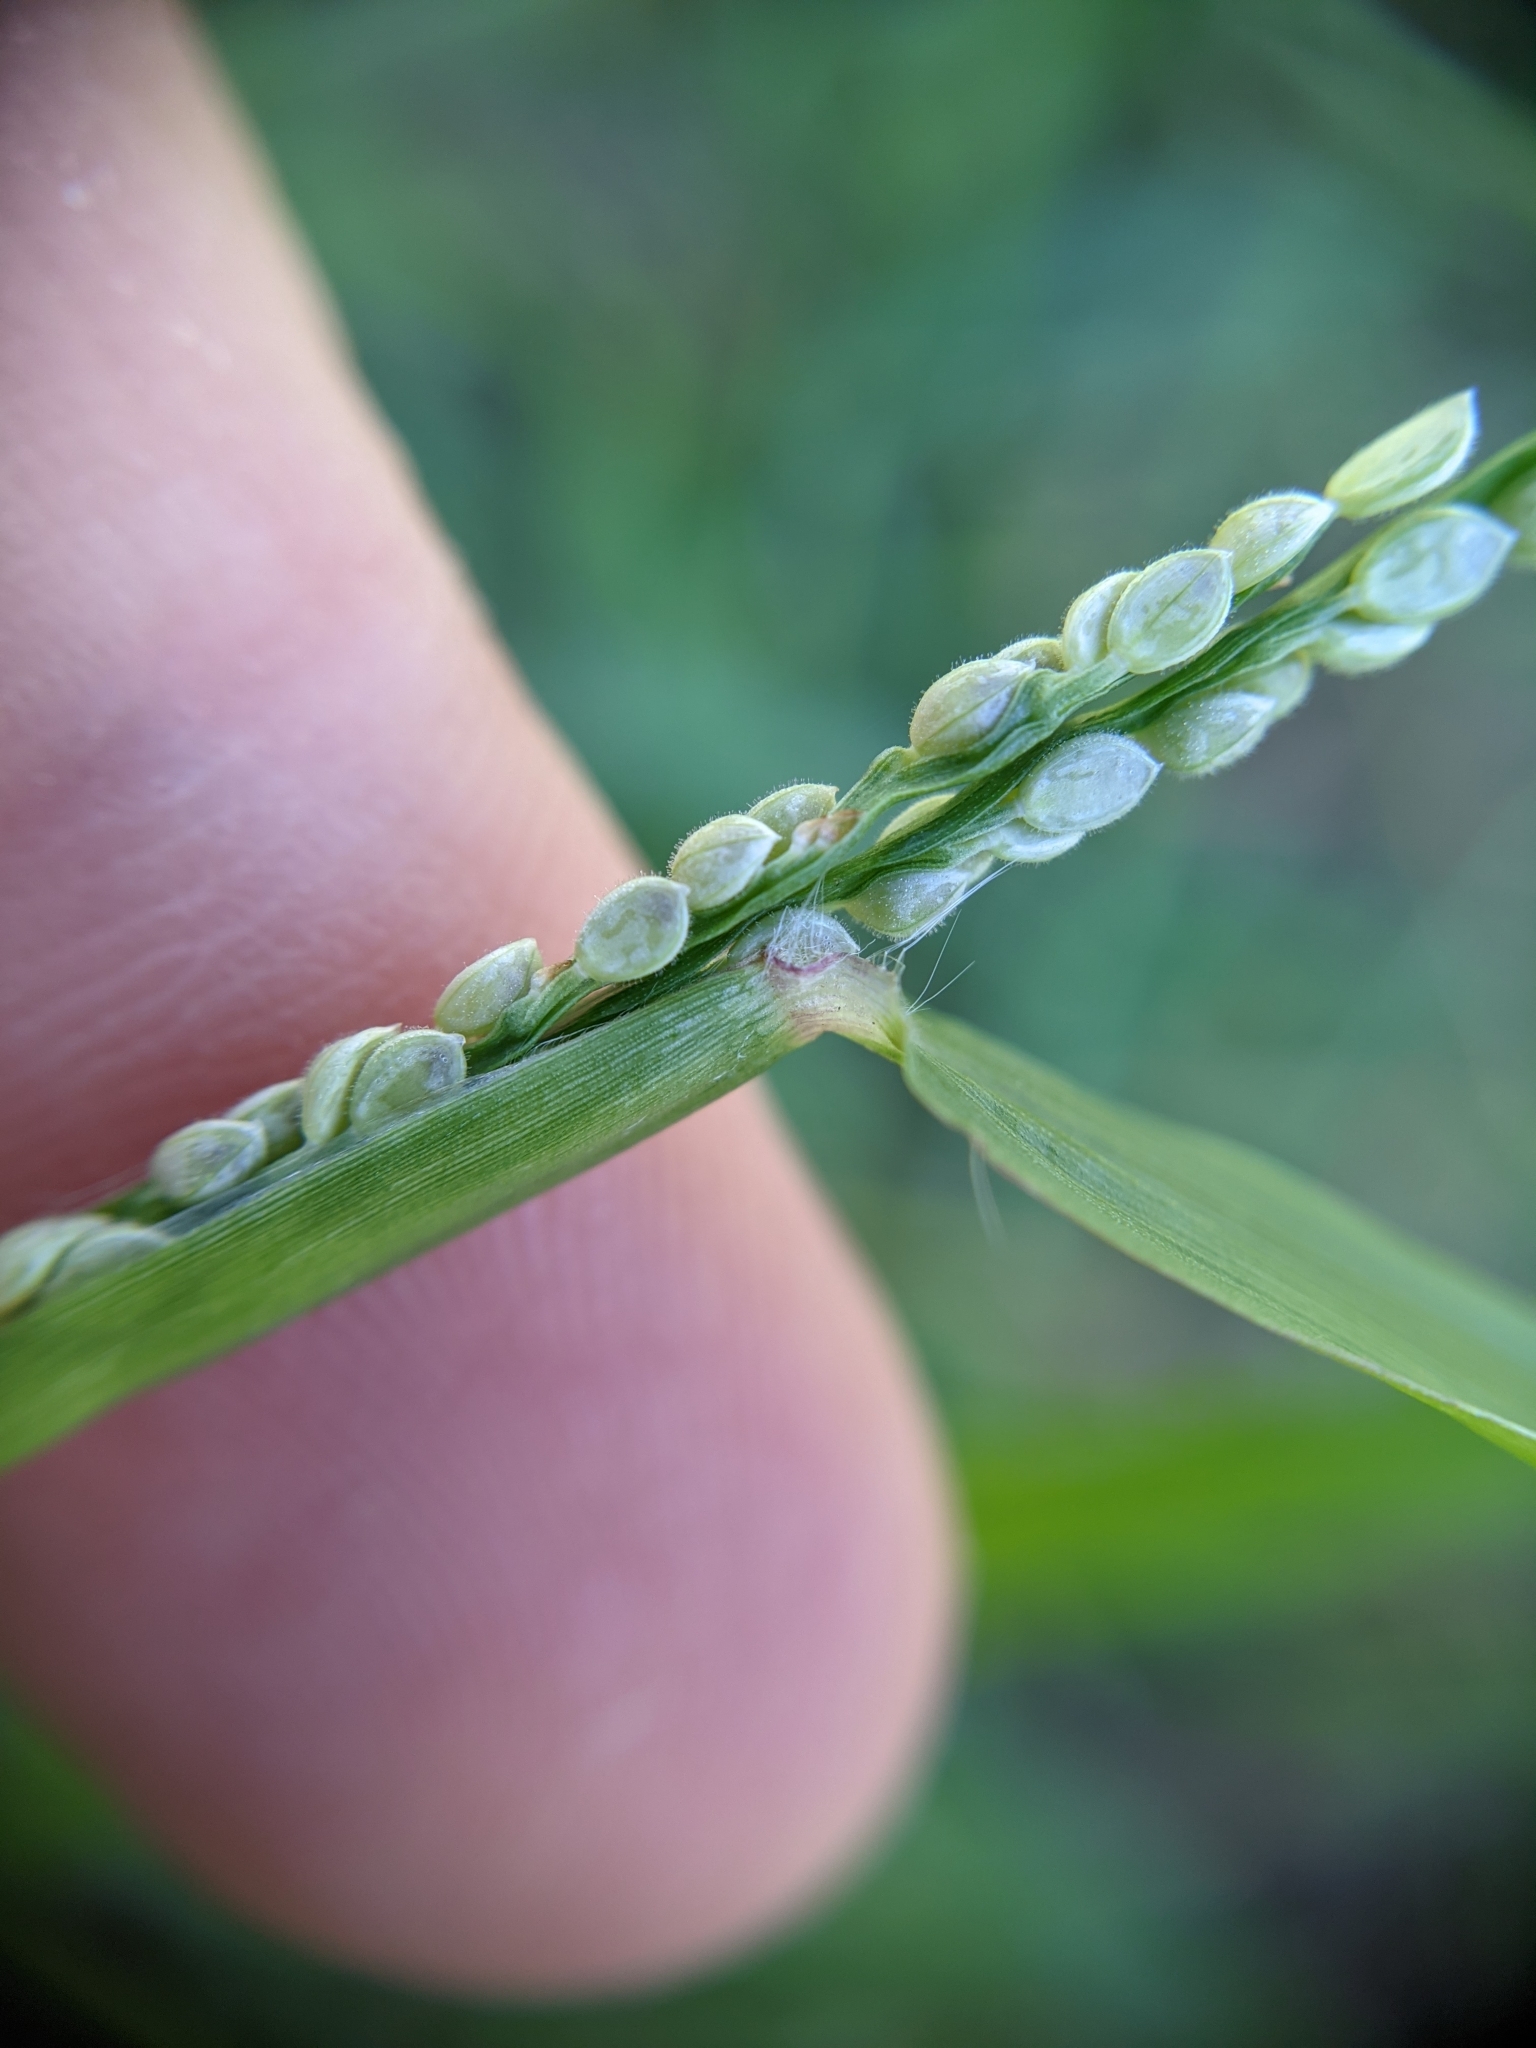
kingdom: Plantae
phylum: Tracheophyta
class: Liliopsida
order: Poales
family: Poaceae
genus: Paspalum
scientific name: Paspalum setaceum
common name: Slender paspalum
